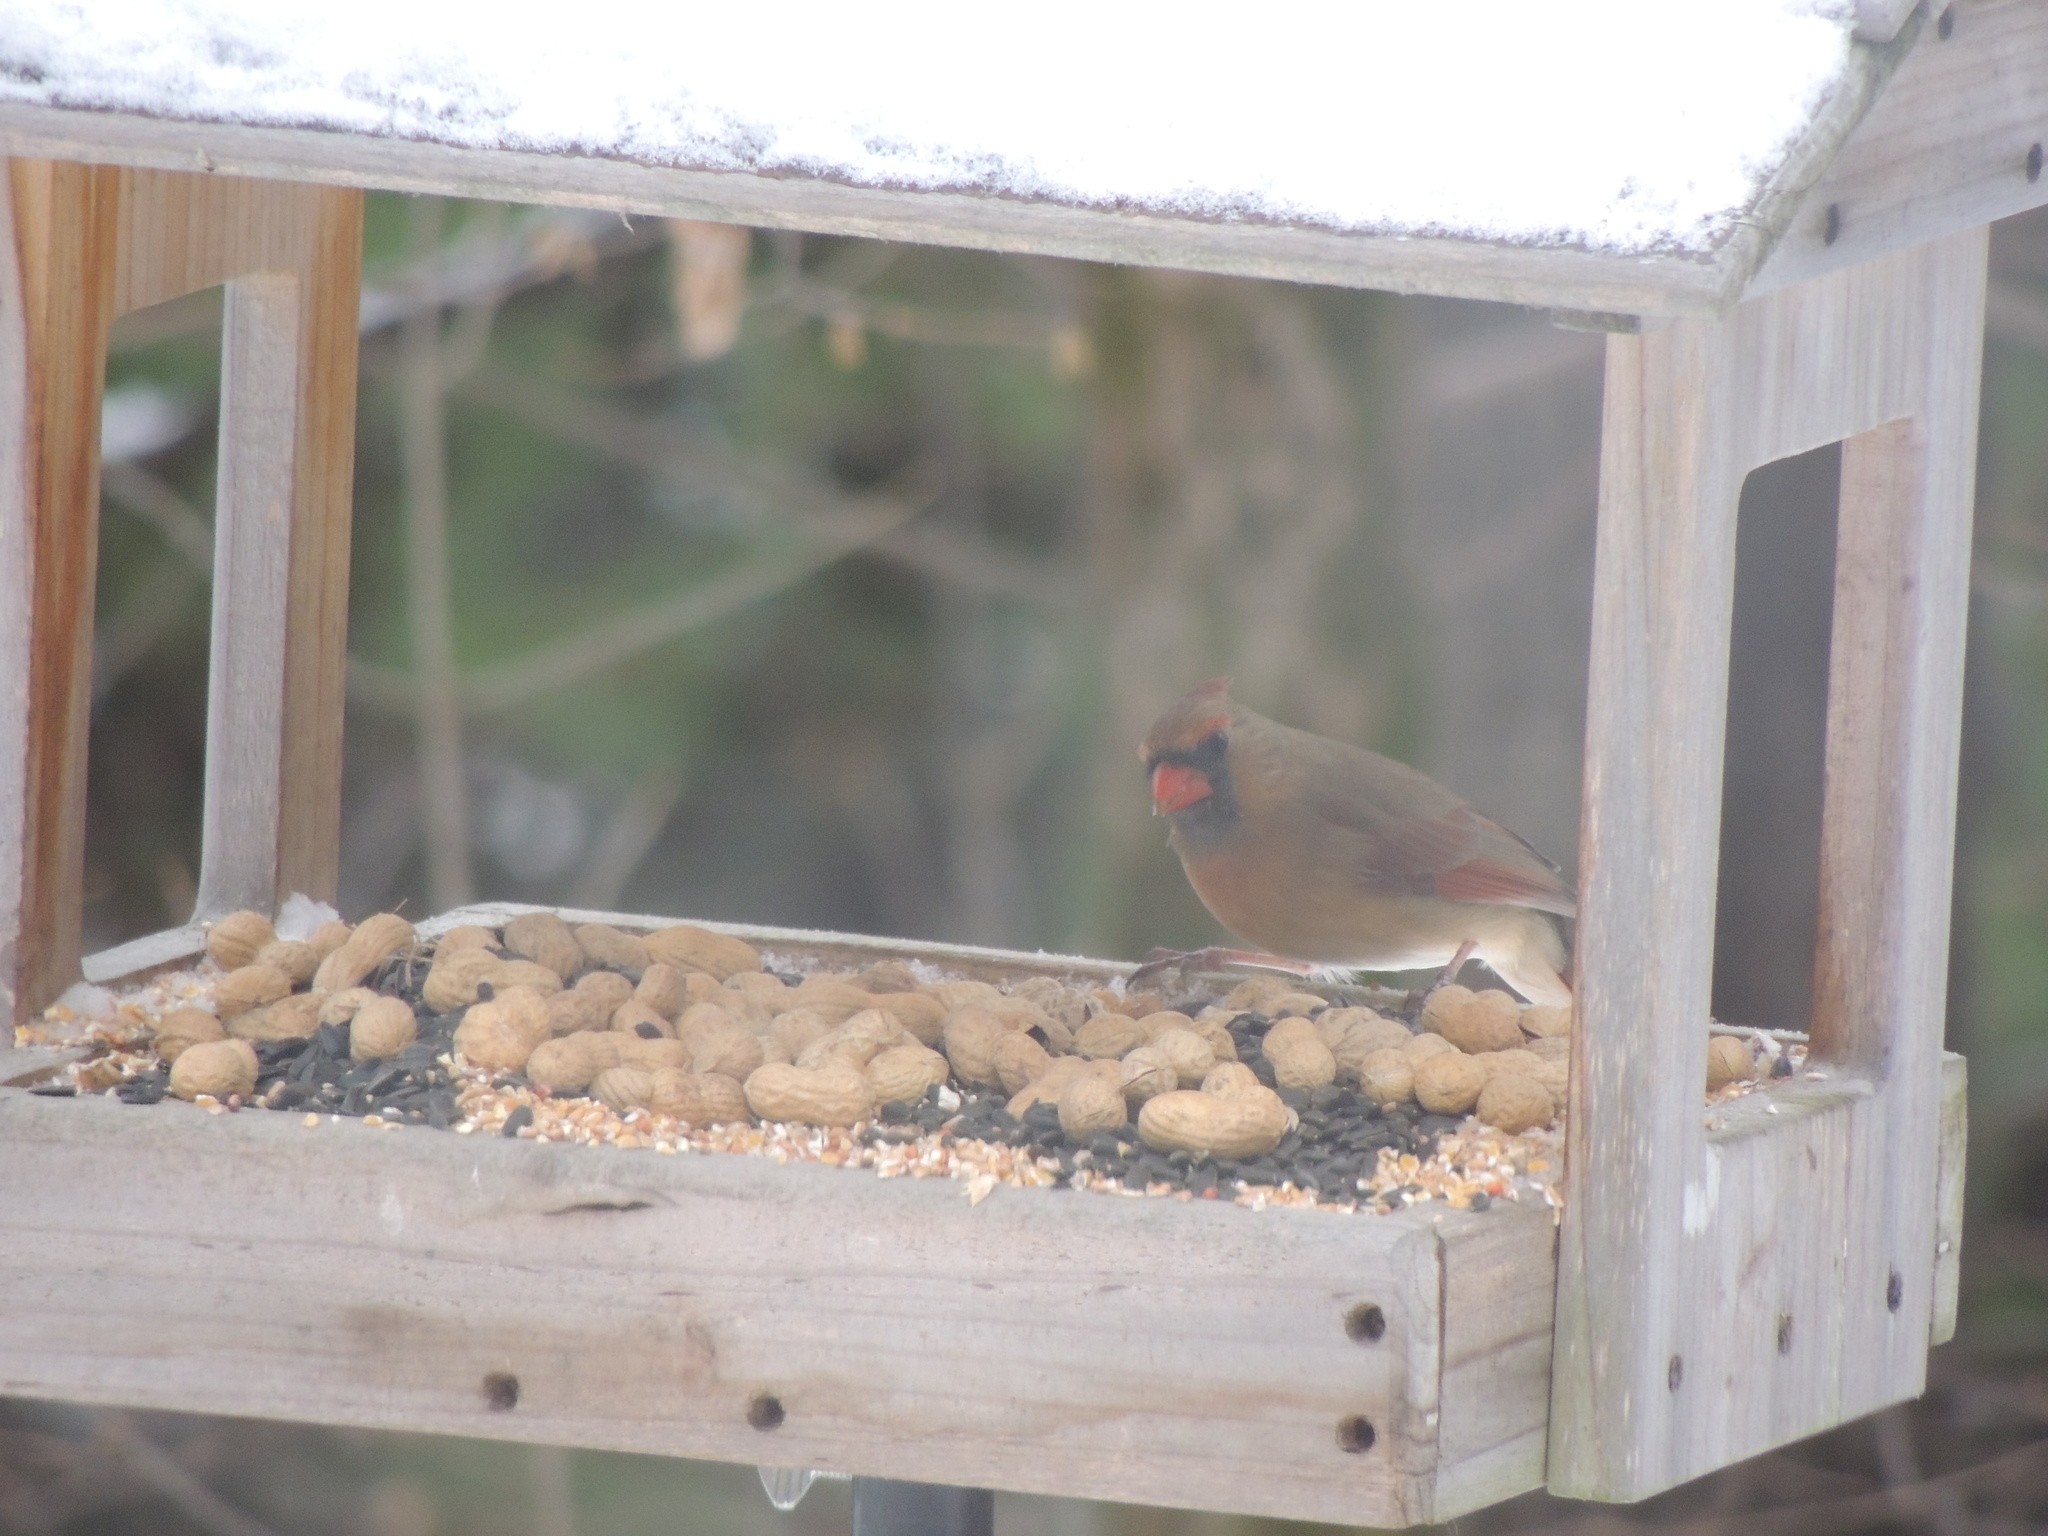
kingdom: Animalia
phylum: Chordata
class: Aves
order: Passeriformes
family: Cardinalidae
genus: Cardinalis
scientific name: Cardinalis cardinalis
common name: Northern cardinal
